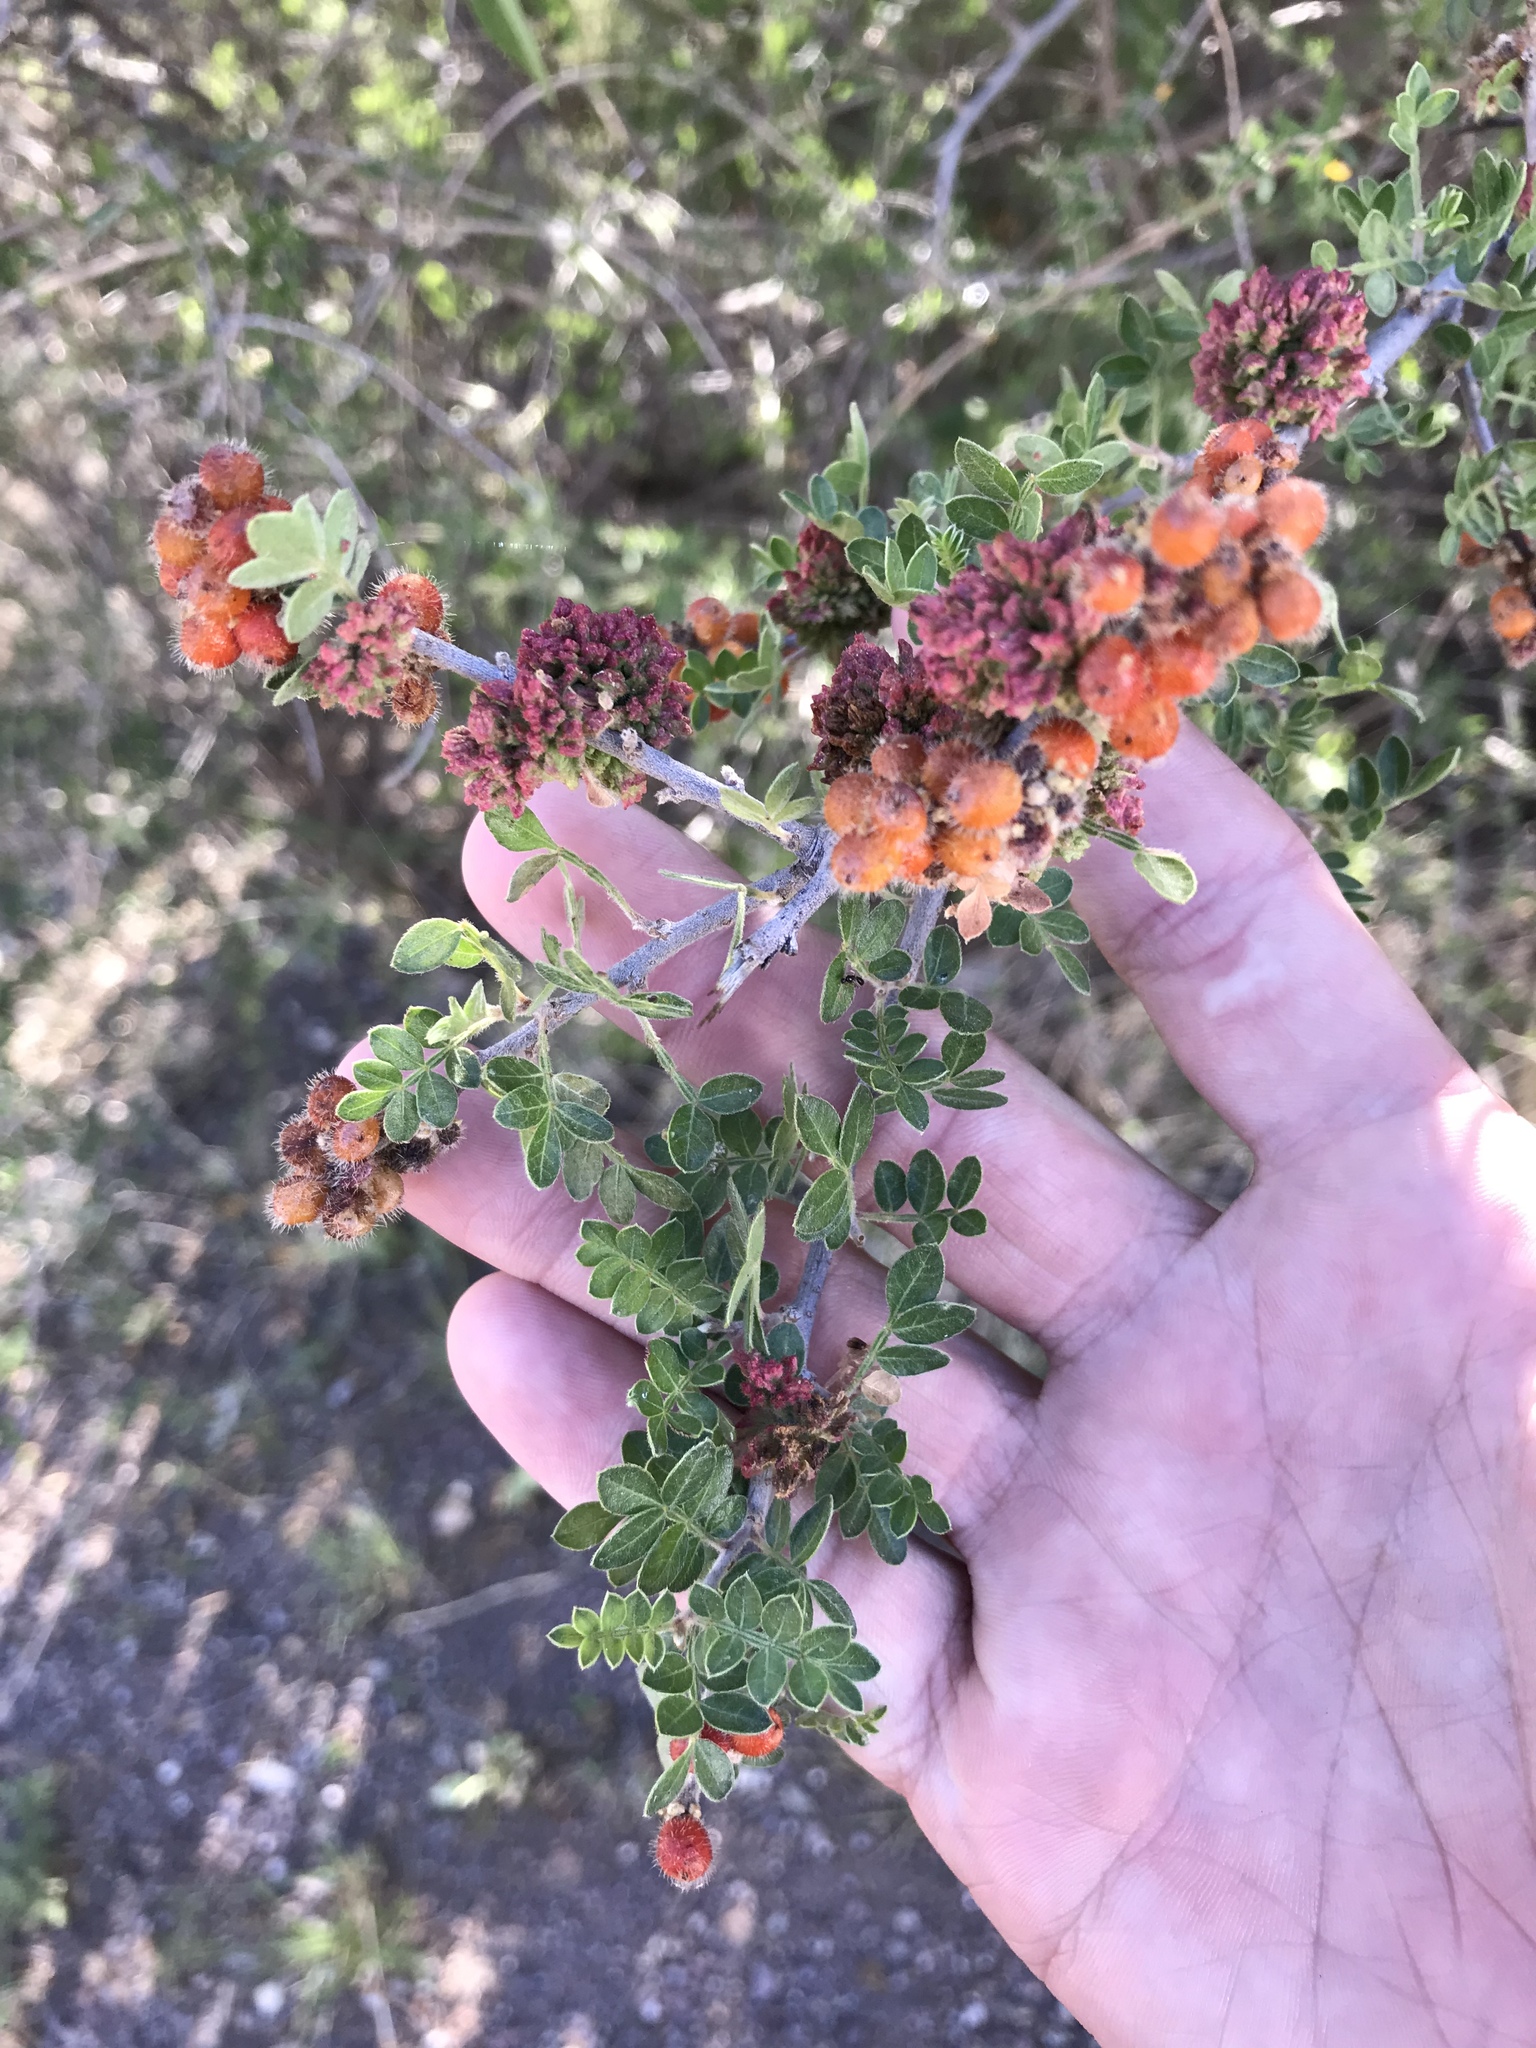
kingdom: Plantae
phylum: Tracheophyta
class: Magnoliopsida
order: Sapindales
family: Anacardiaceae
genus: Rhus
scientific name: Rhus microphylla
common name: Desert sumac
